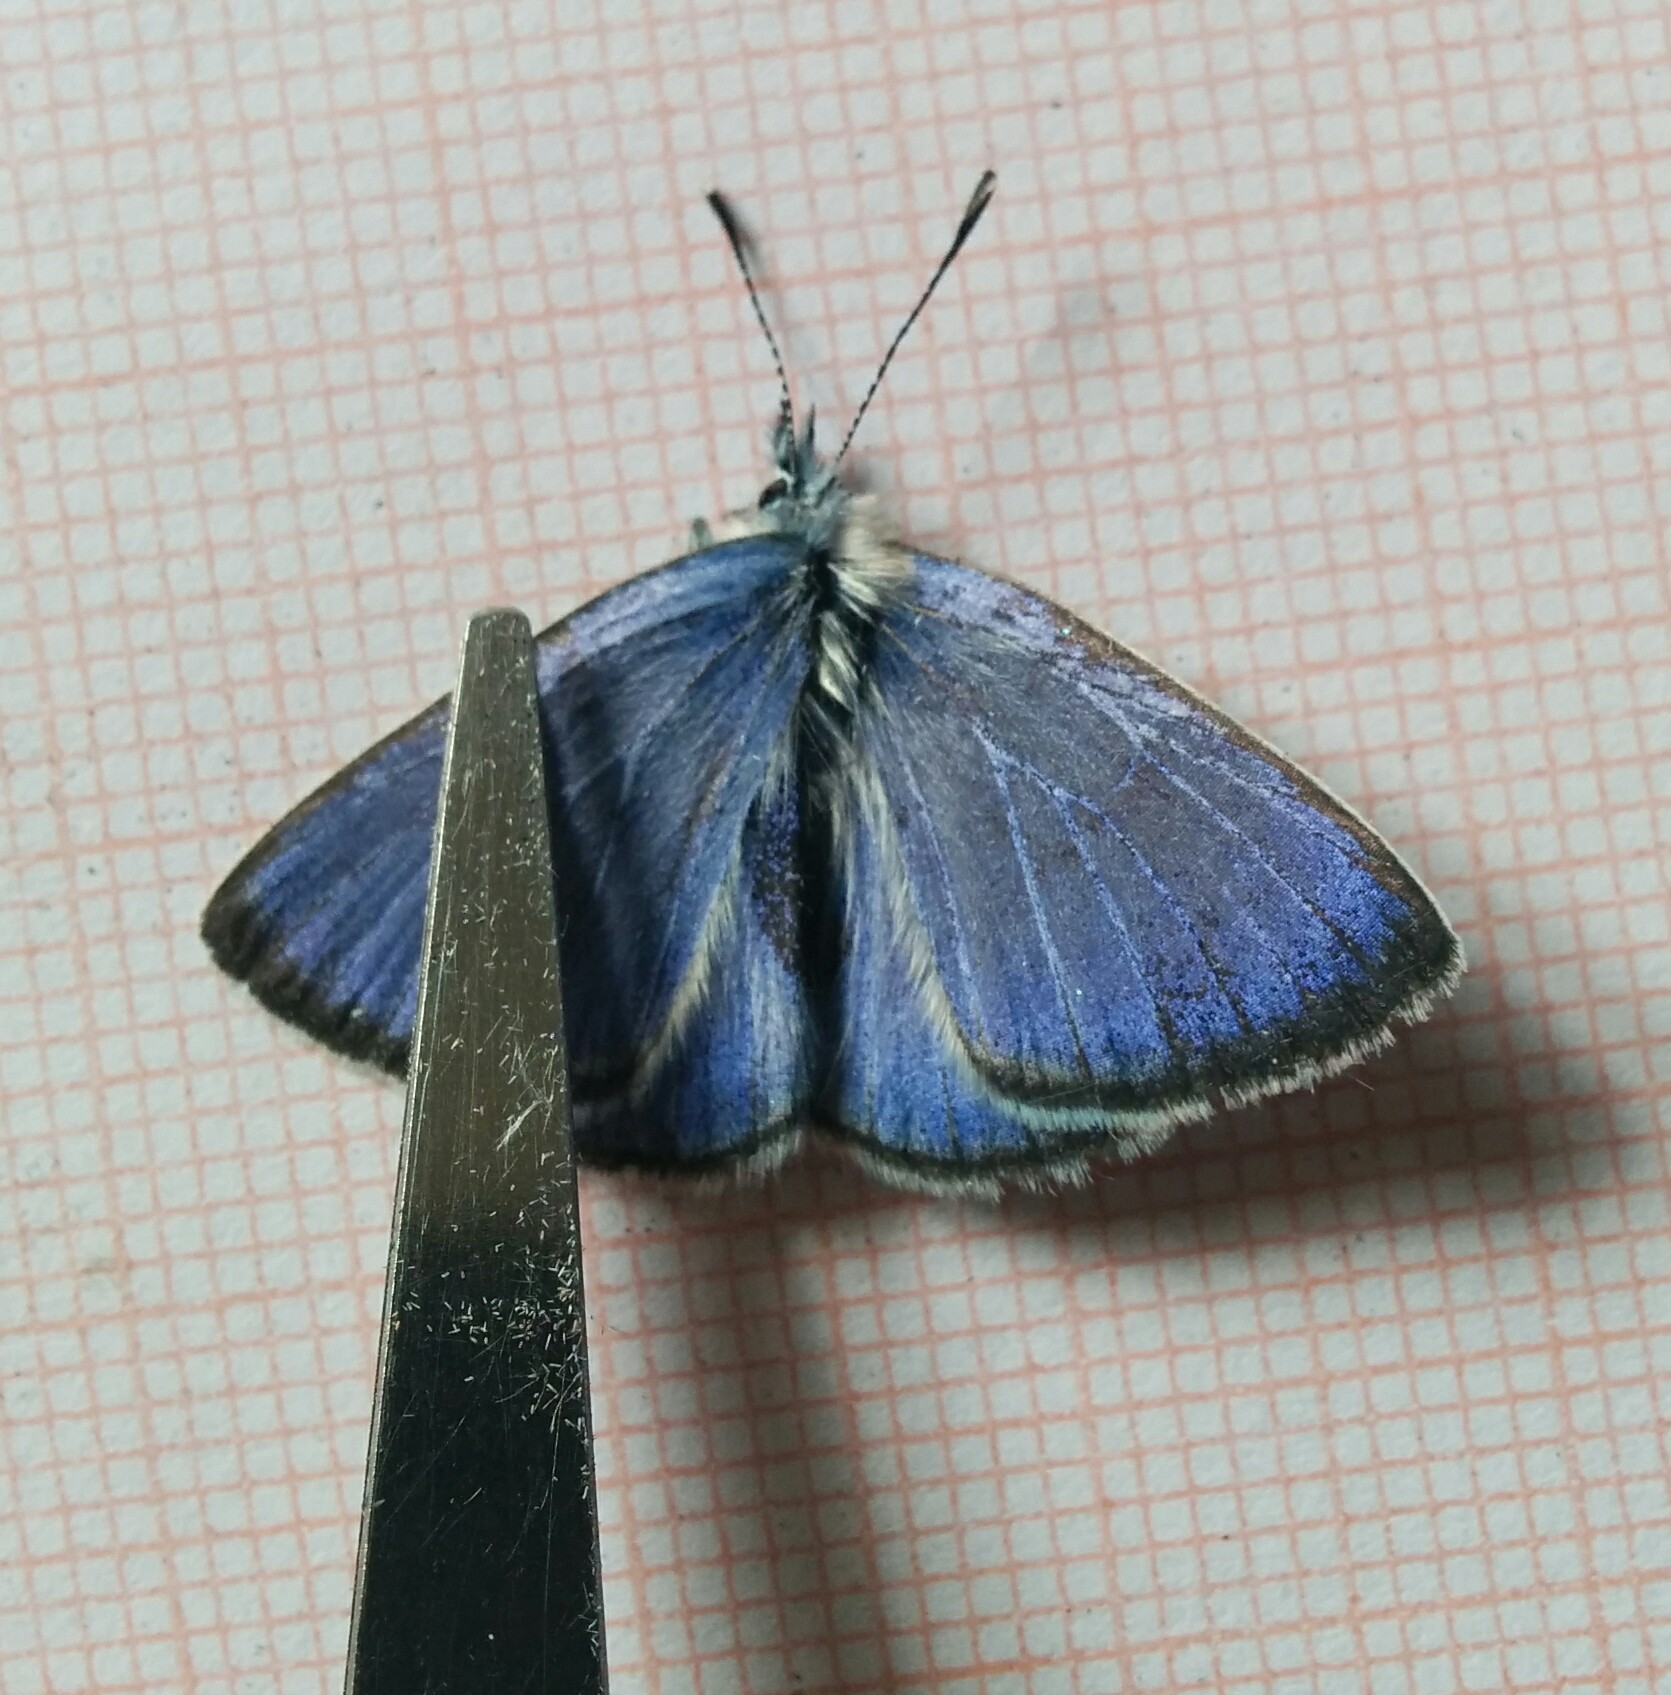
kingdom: Animalia
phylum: Arthropoda
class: Insecta
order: Lepidoptera
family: Lycaenidae
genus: Glaucopsyche
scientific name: Glaucopsyche alexis
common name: Green-underside blue
